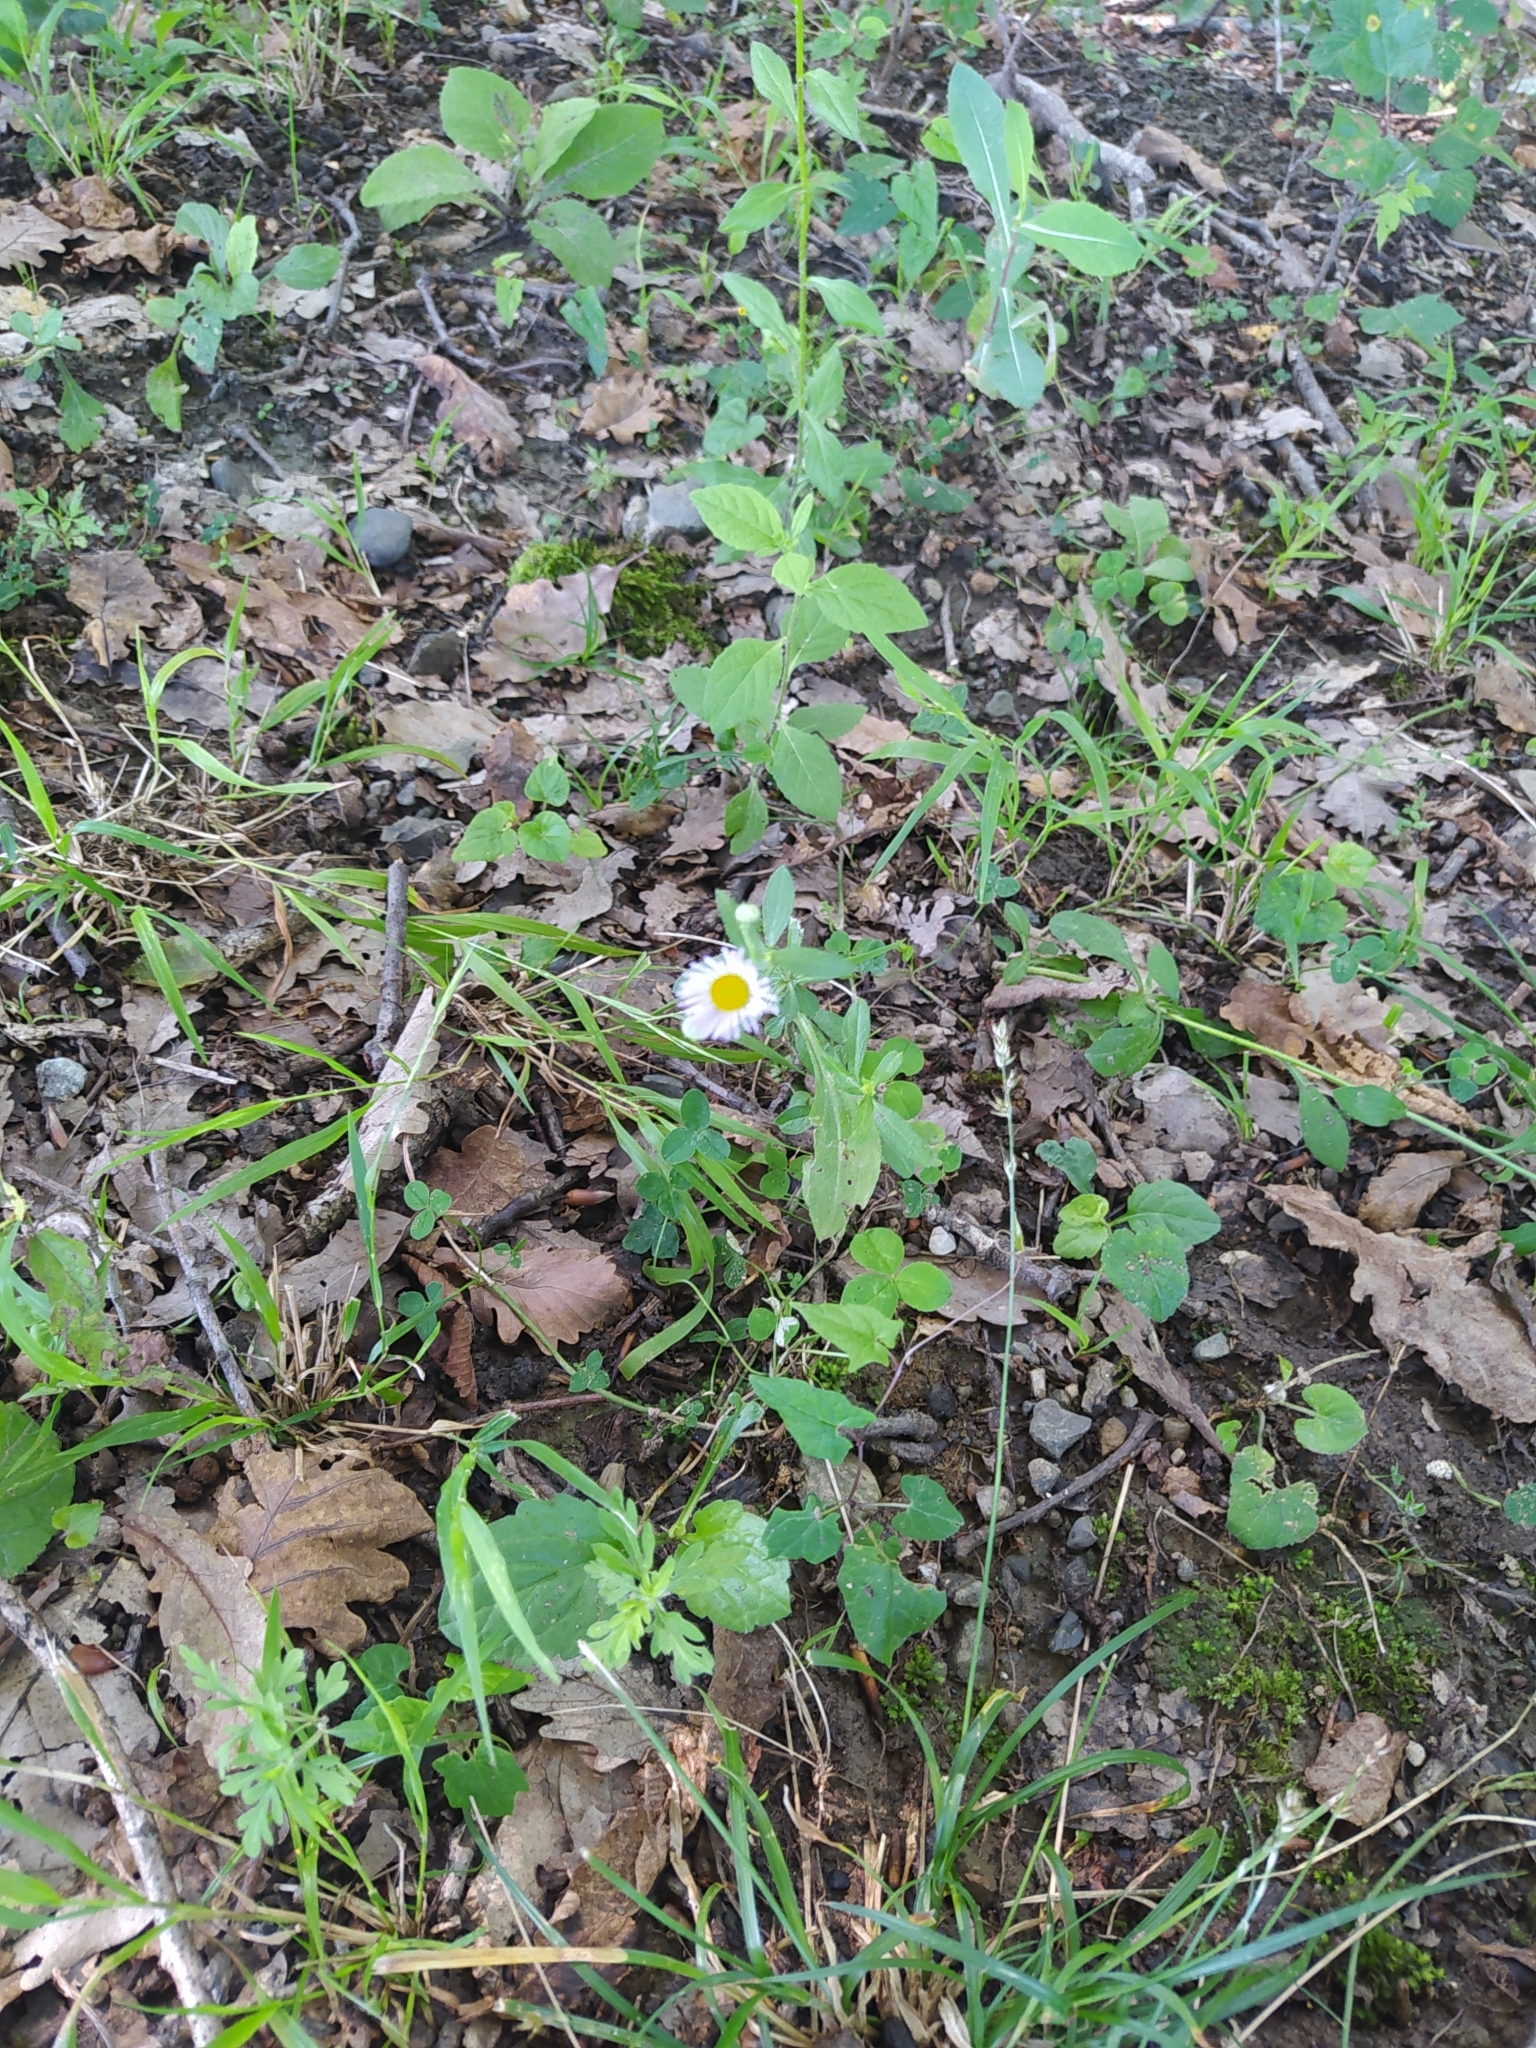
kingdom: Plantae
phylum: Tracheophyta
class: Magnoliopsida
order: Asterales
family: Asteraceae
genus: Erigeron
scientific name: Erigeron annuus
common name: Tall fleabane
